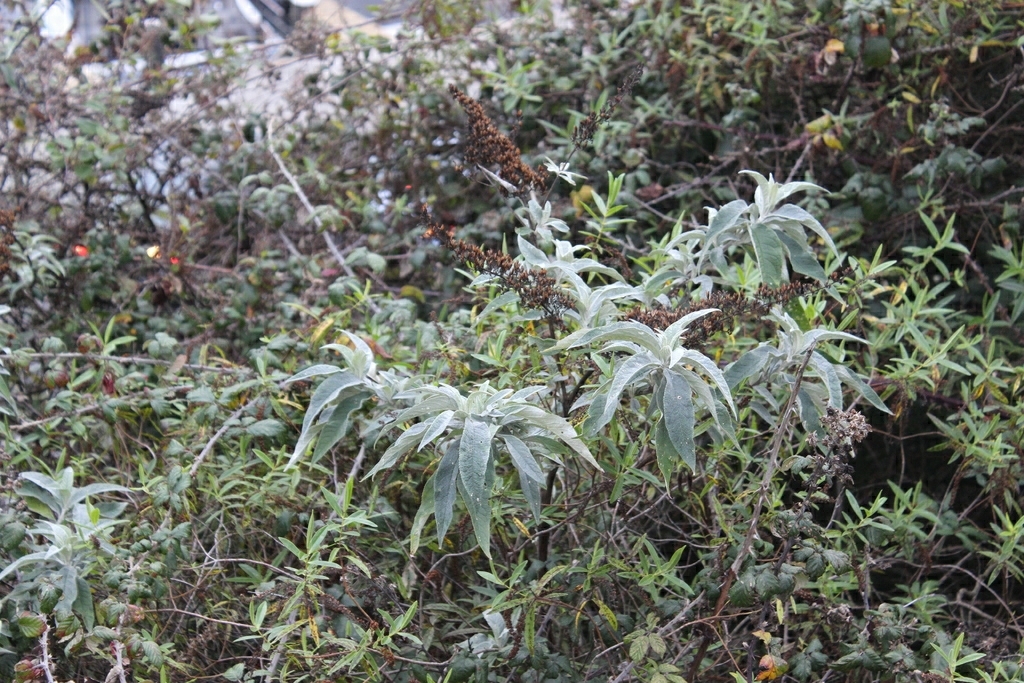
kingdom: Plantae
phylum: Tracheophyta
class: Magnoliopsida
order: Lamiales
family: Scrophulariaceae
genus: Buddleja
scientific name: Buddleja davidii
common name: Butterfly-bush
